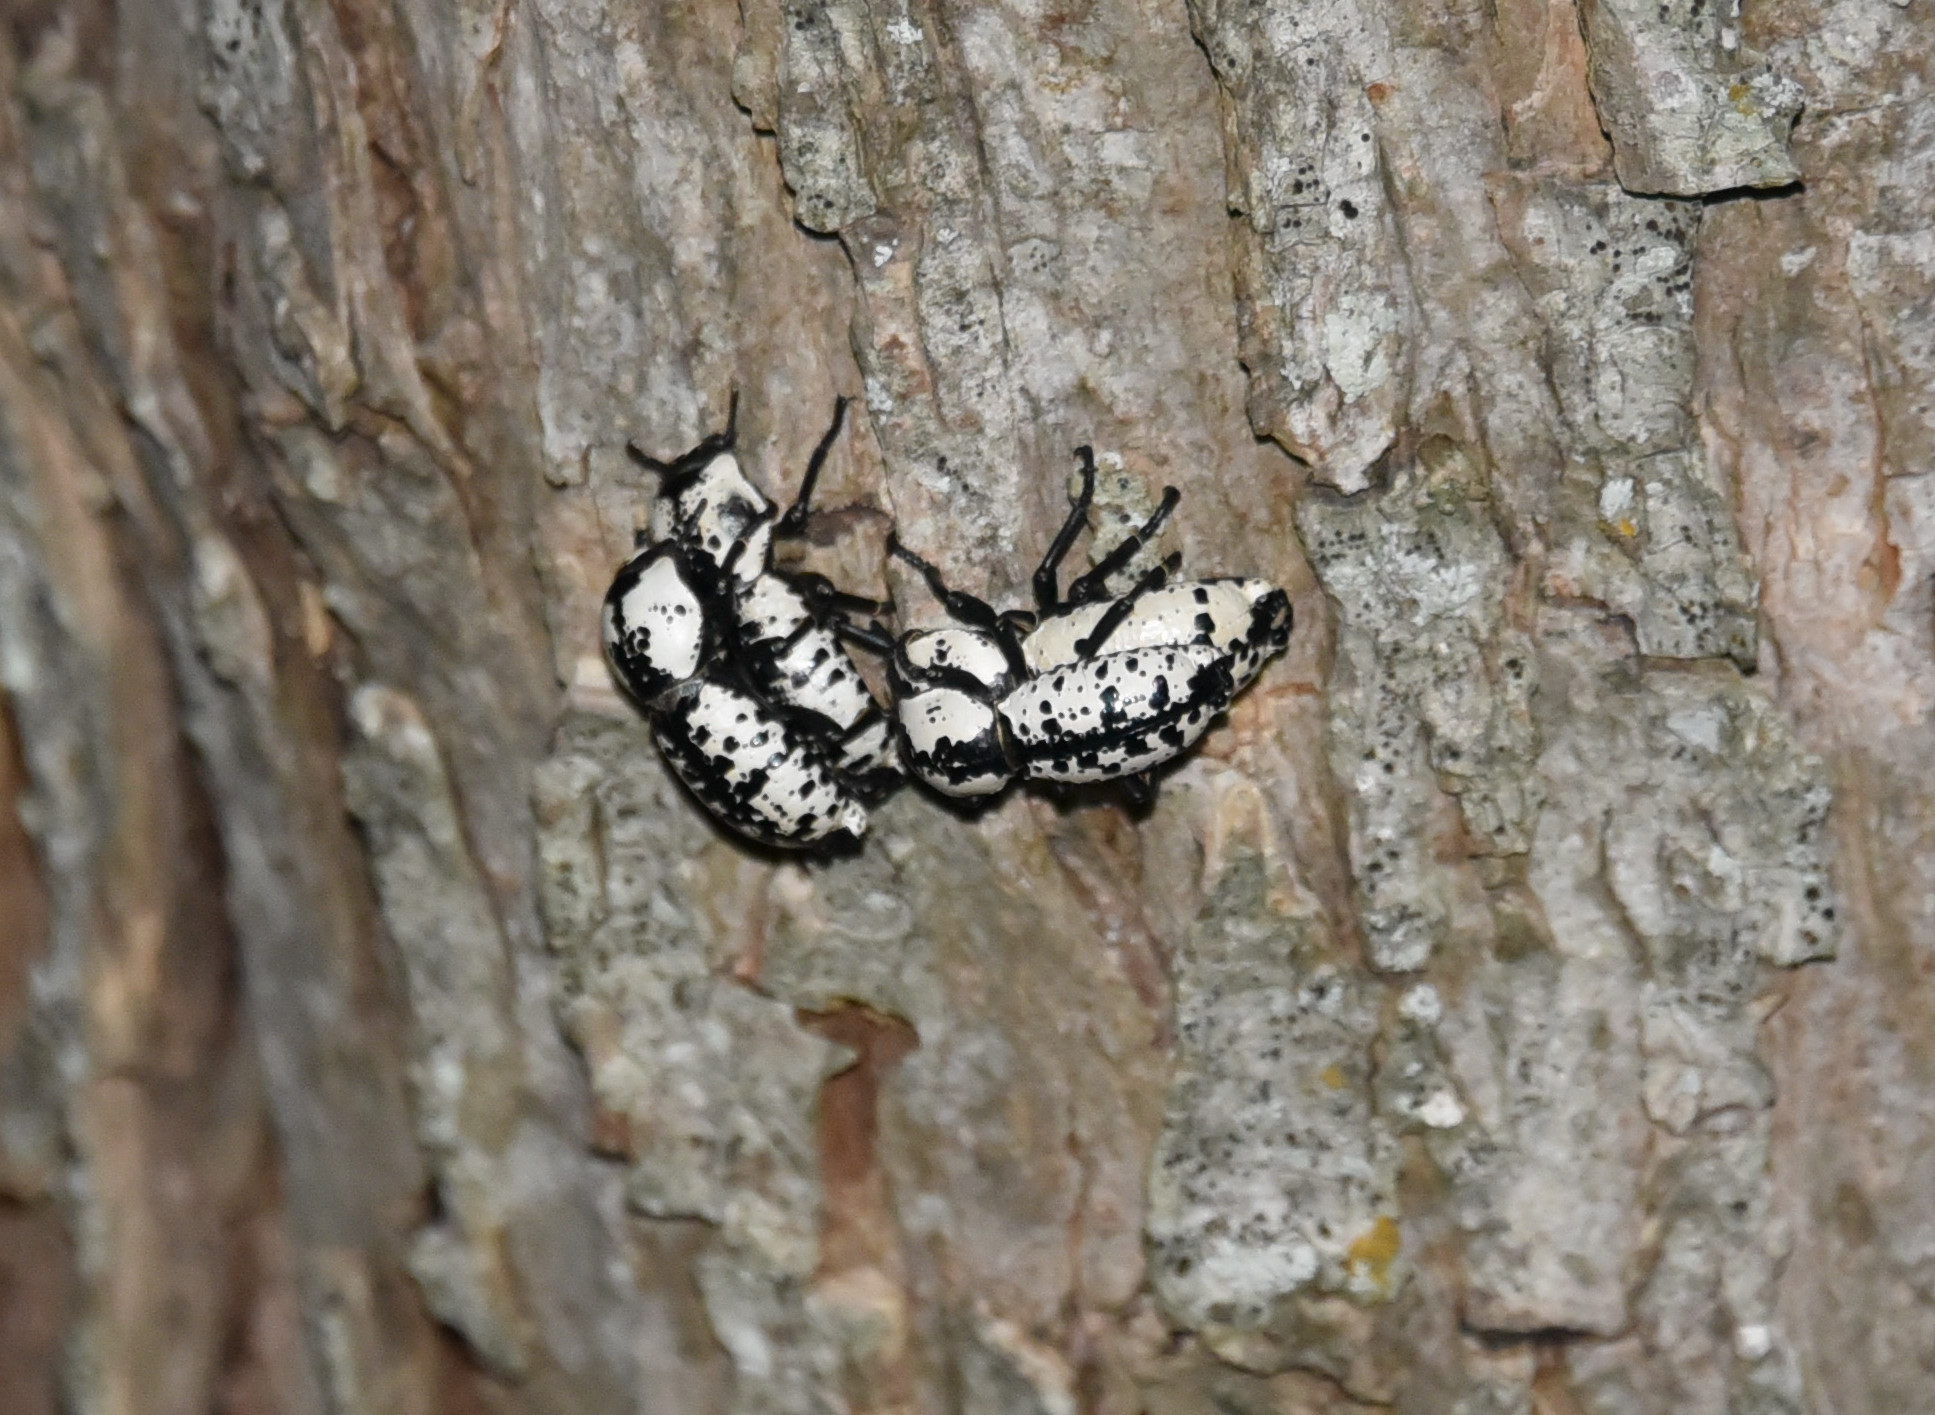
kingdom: Animalia
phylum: Arthropoda
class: Insecta
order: Coleoptera
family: Zopheridae
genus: Zopherus
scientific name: Zopherus nodulosus
